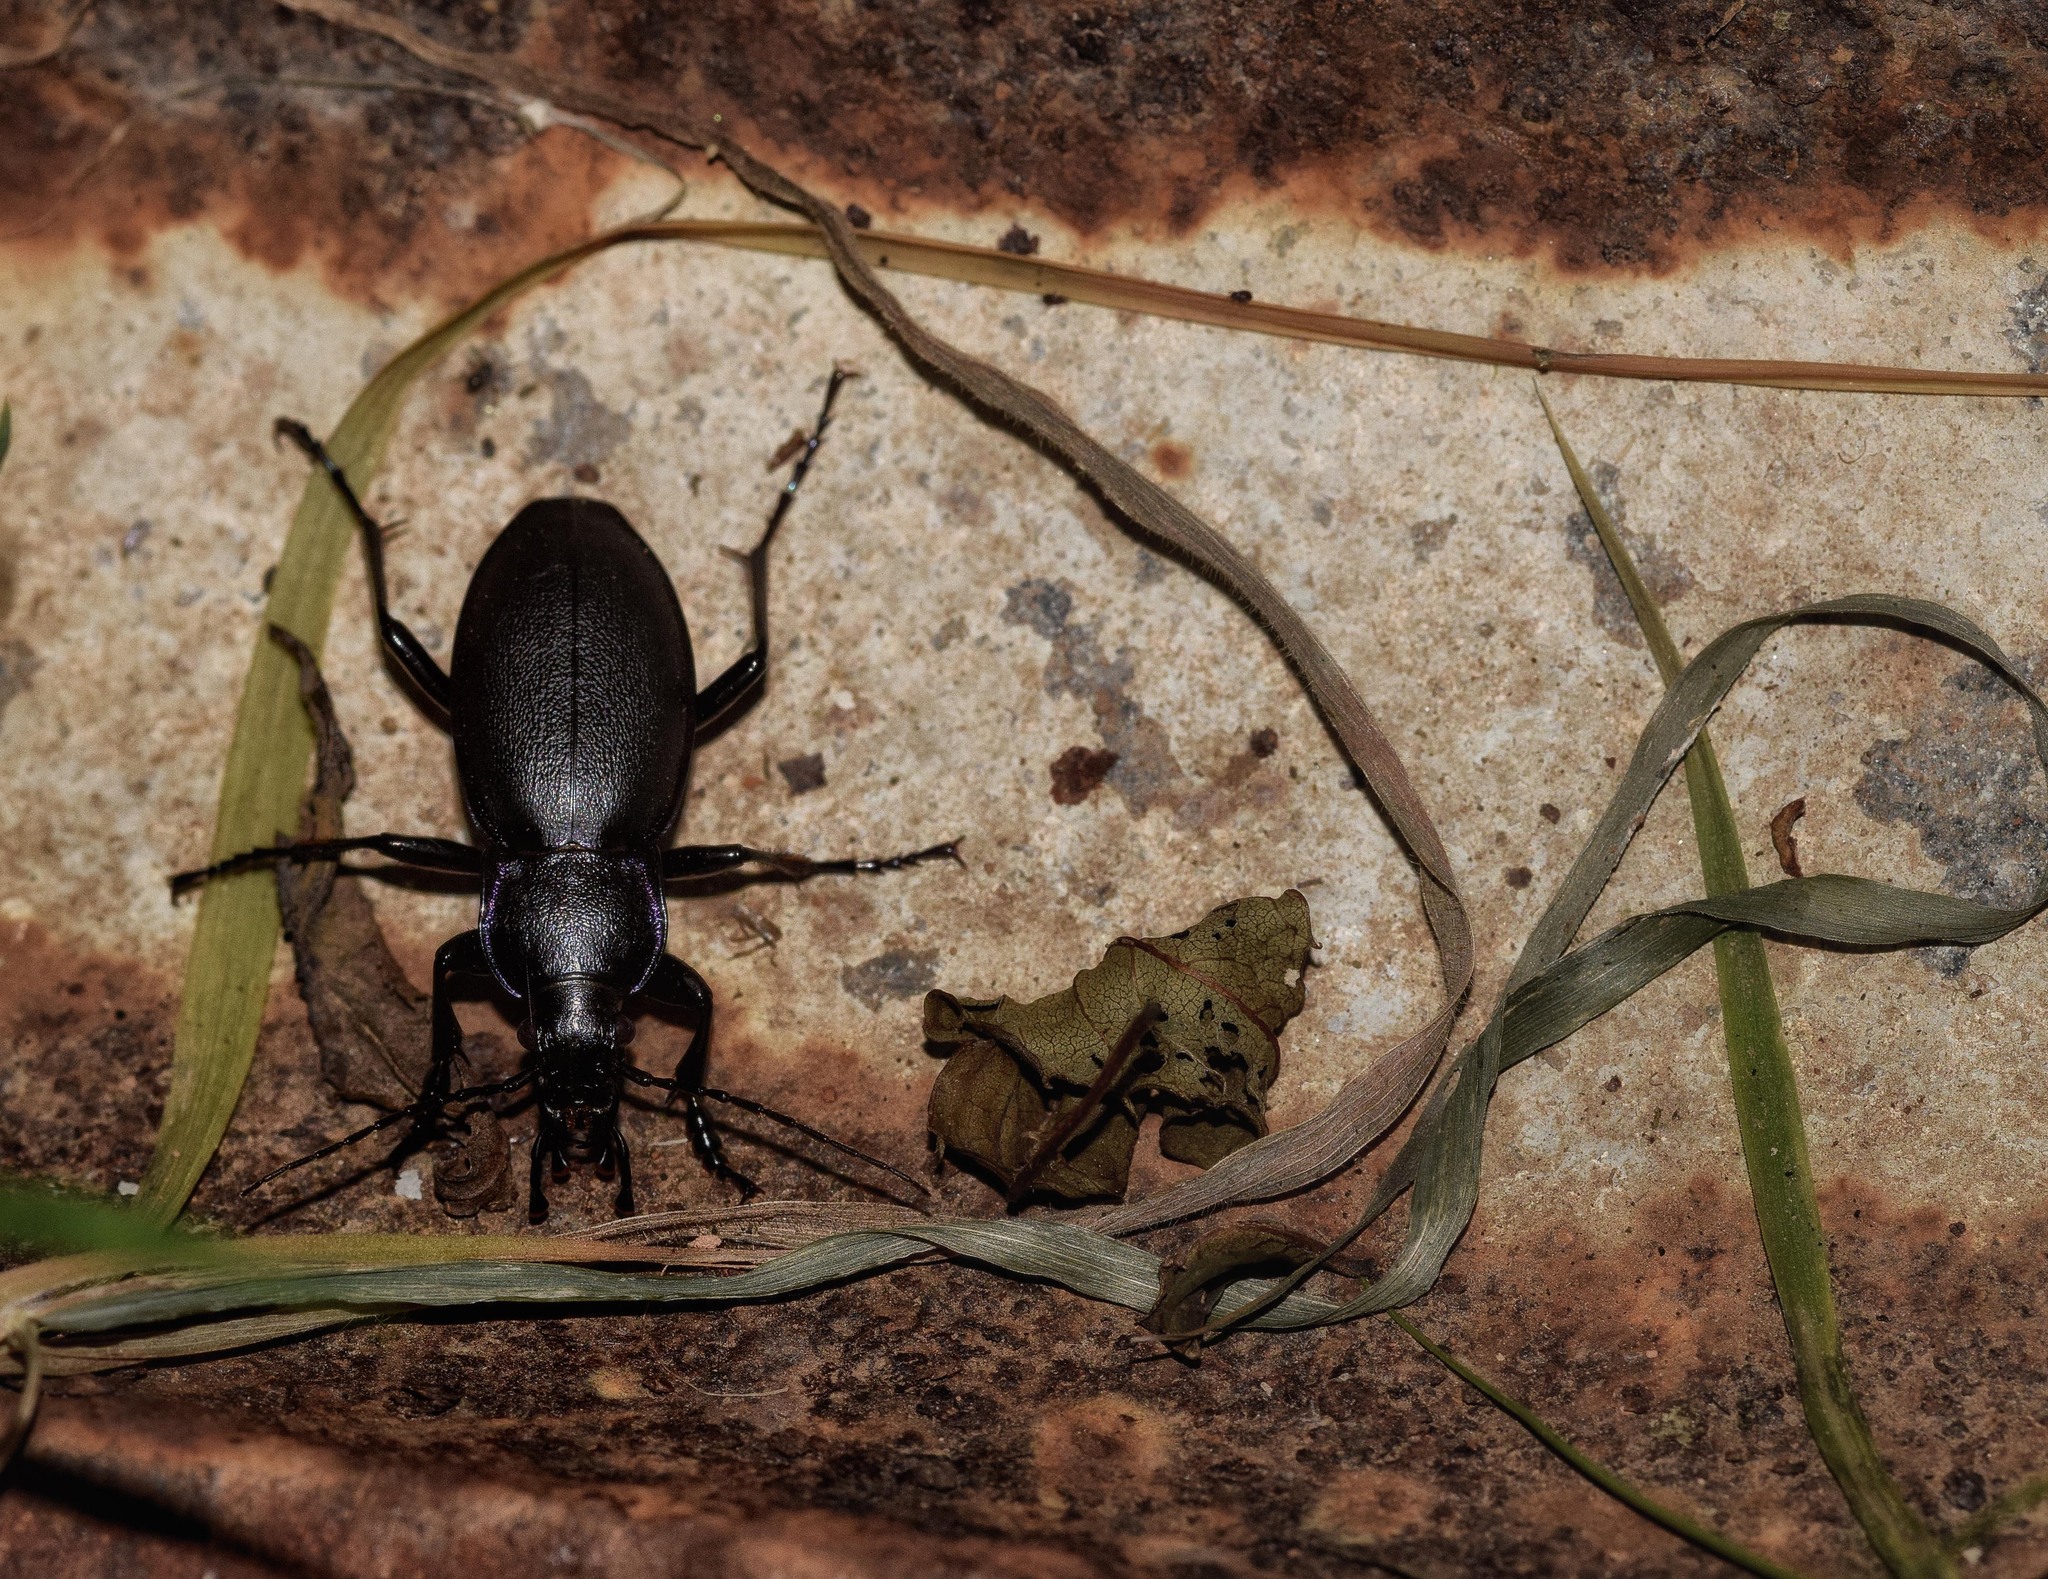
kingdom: Animalia
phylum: Arthropoda
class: Insecta
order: Coleoptera
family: Carabidae
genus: Carabus
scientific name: Carabus violaceus
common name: Violet ground beetle
